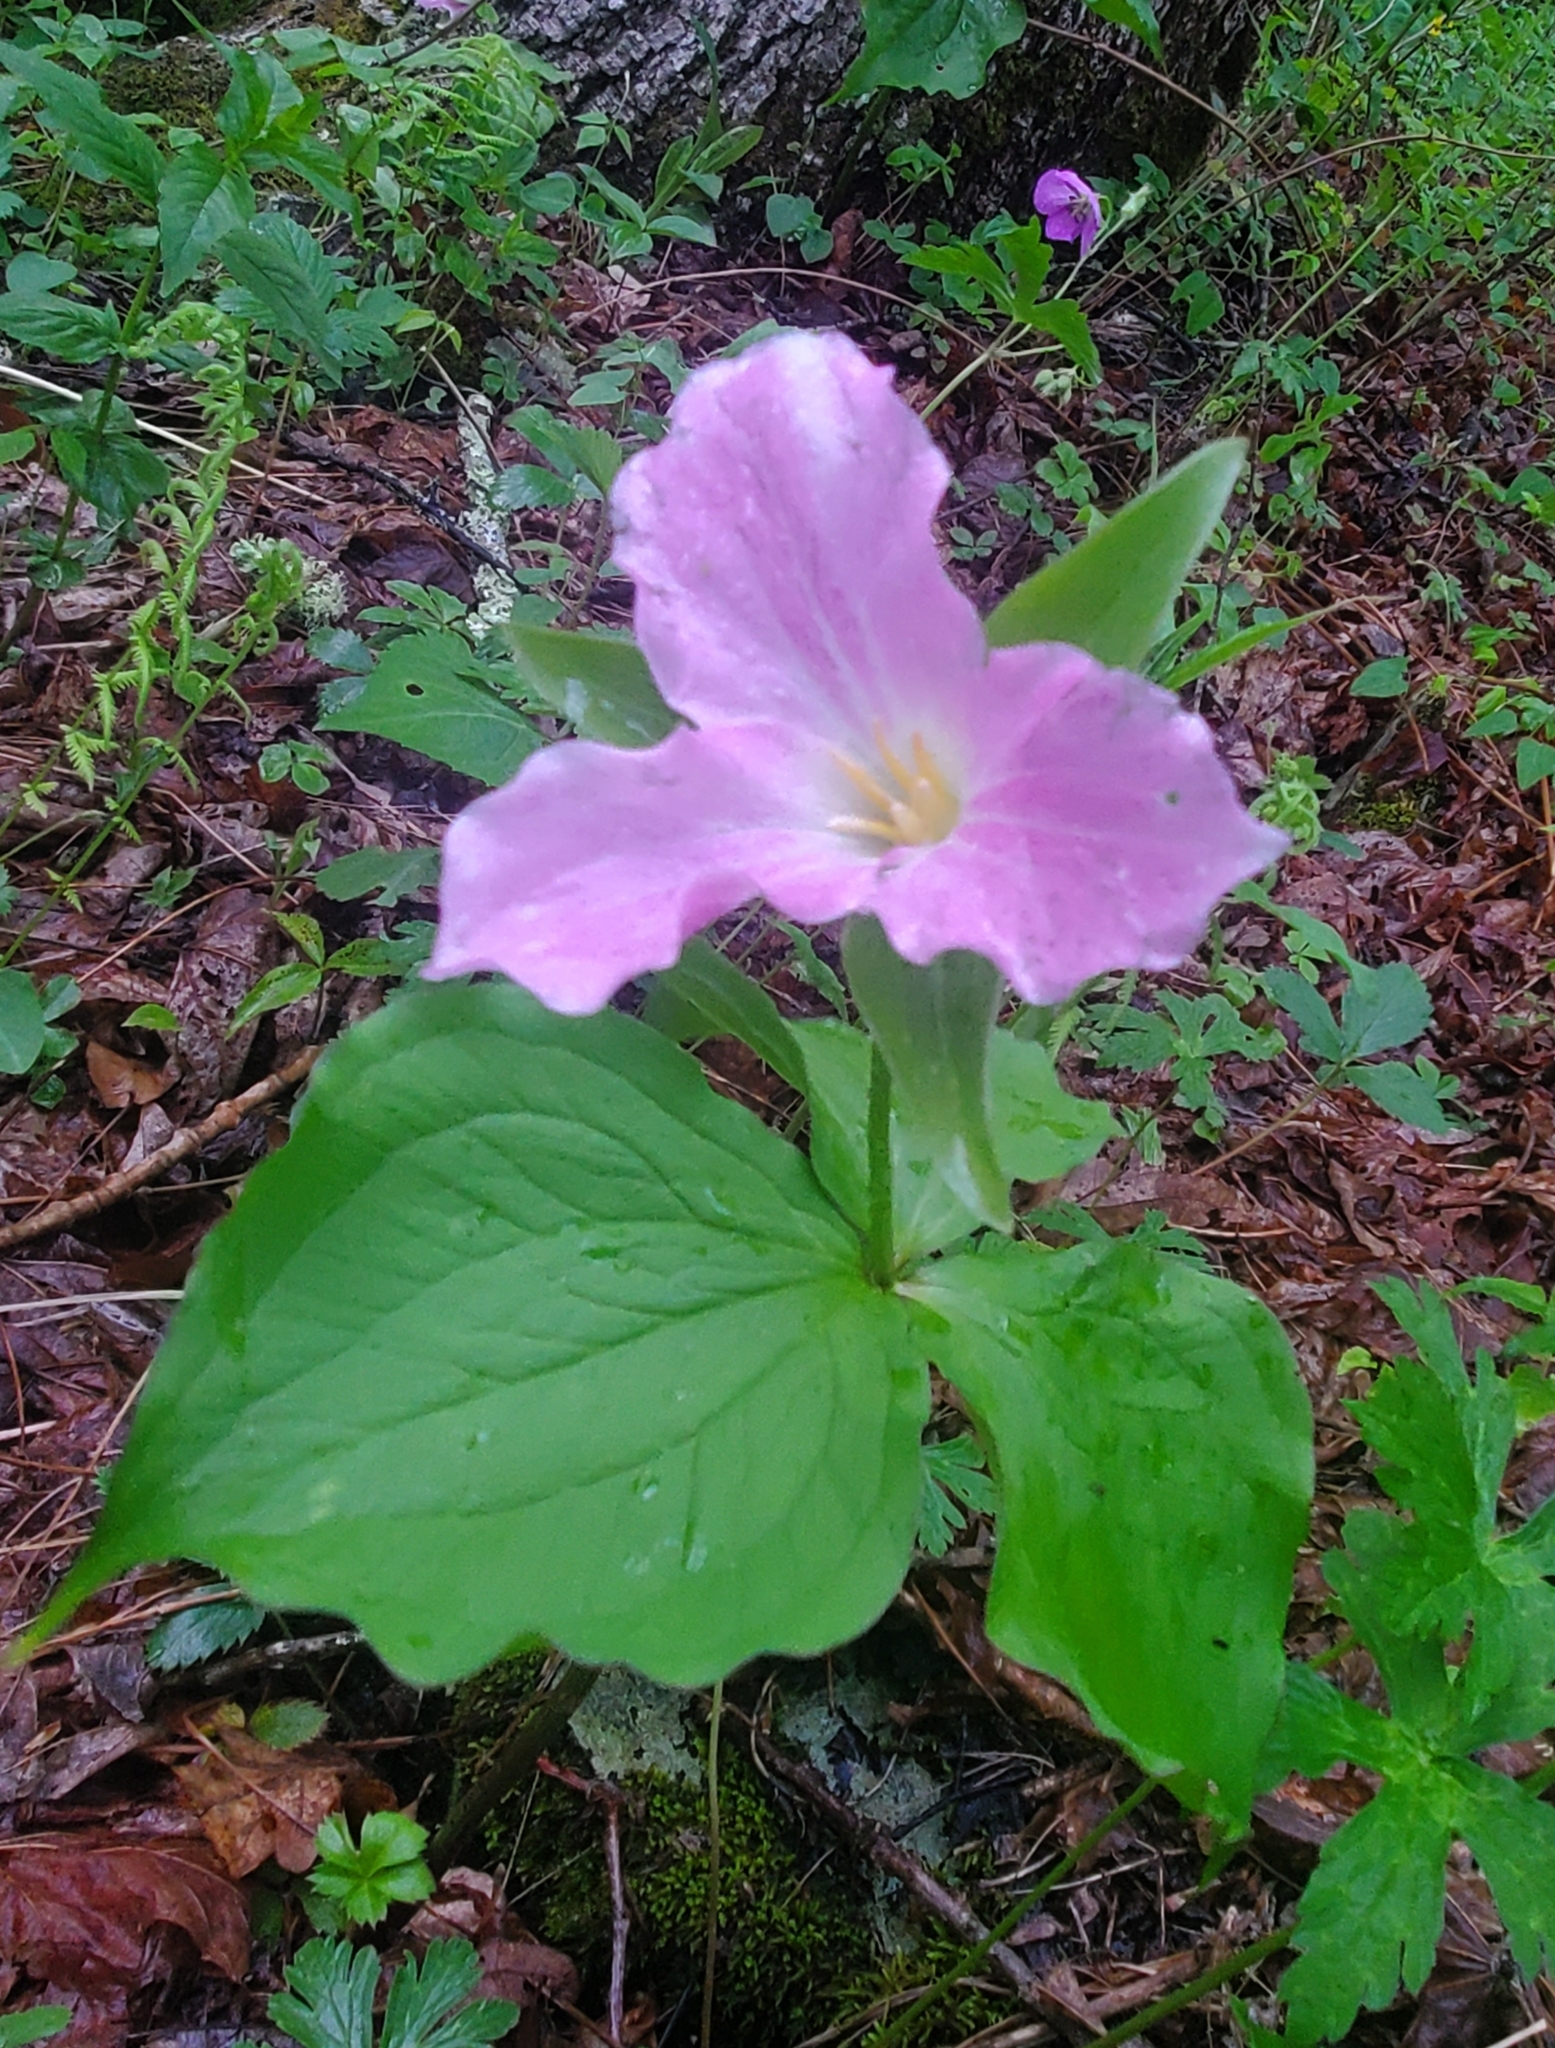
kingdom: Plantae
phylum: Tracheophyta
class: Liliopsida
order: Liliales
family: Melanthiaceae
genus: Trillium
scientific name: Trillium grandiflorum
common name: Great white trillium
